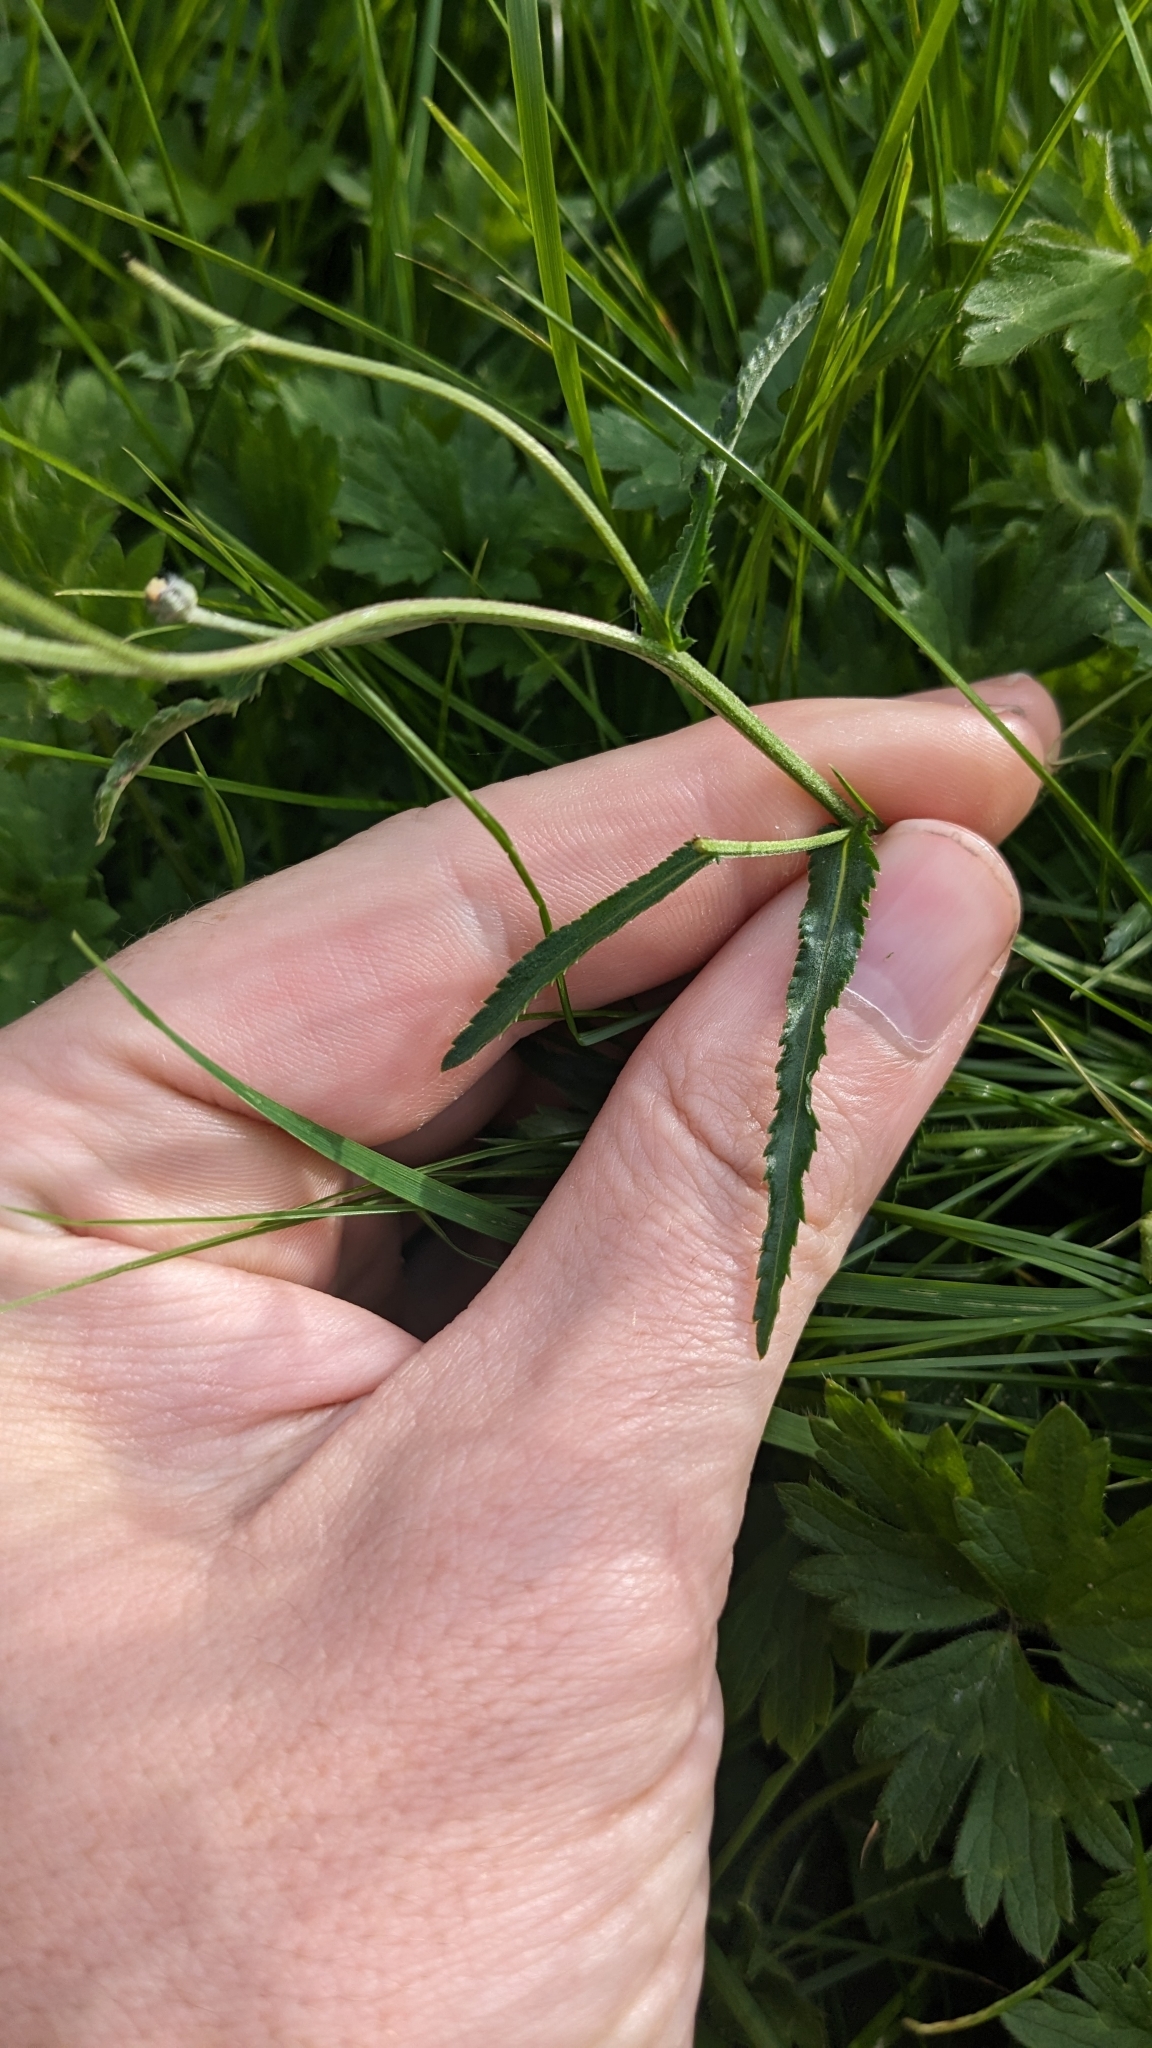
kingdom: Plantae
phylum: Tracheophyta
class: Magnoliopsida
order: Asterales
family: Asteraceae
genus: Achillea
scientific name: Achillea ptarmica
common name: Sneezeweed
